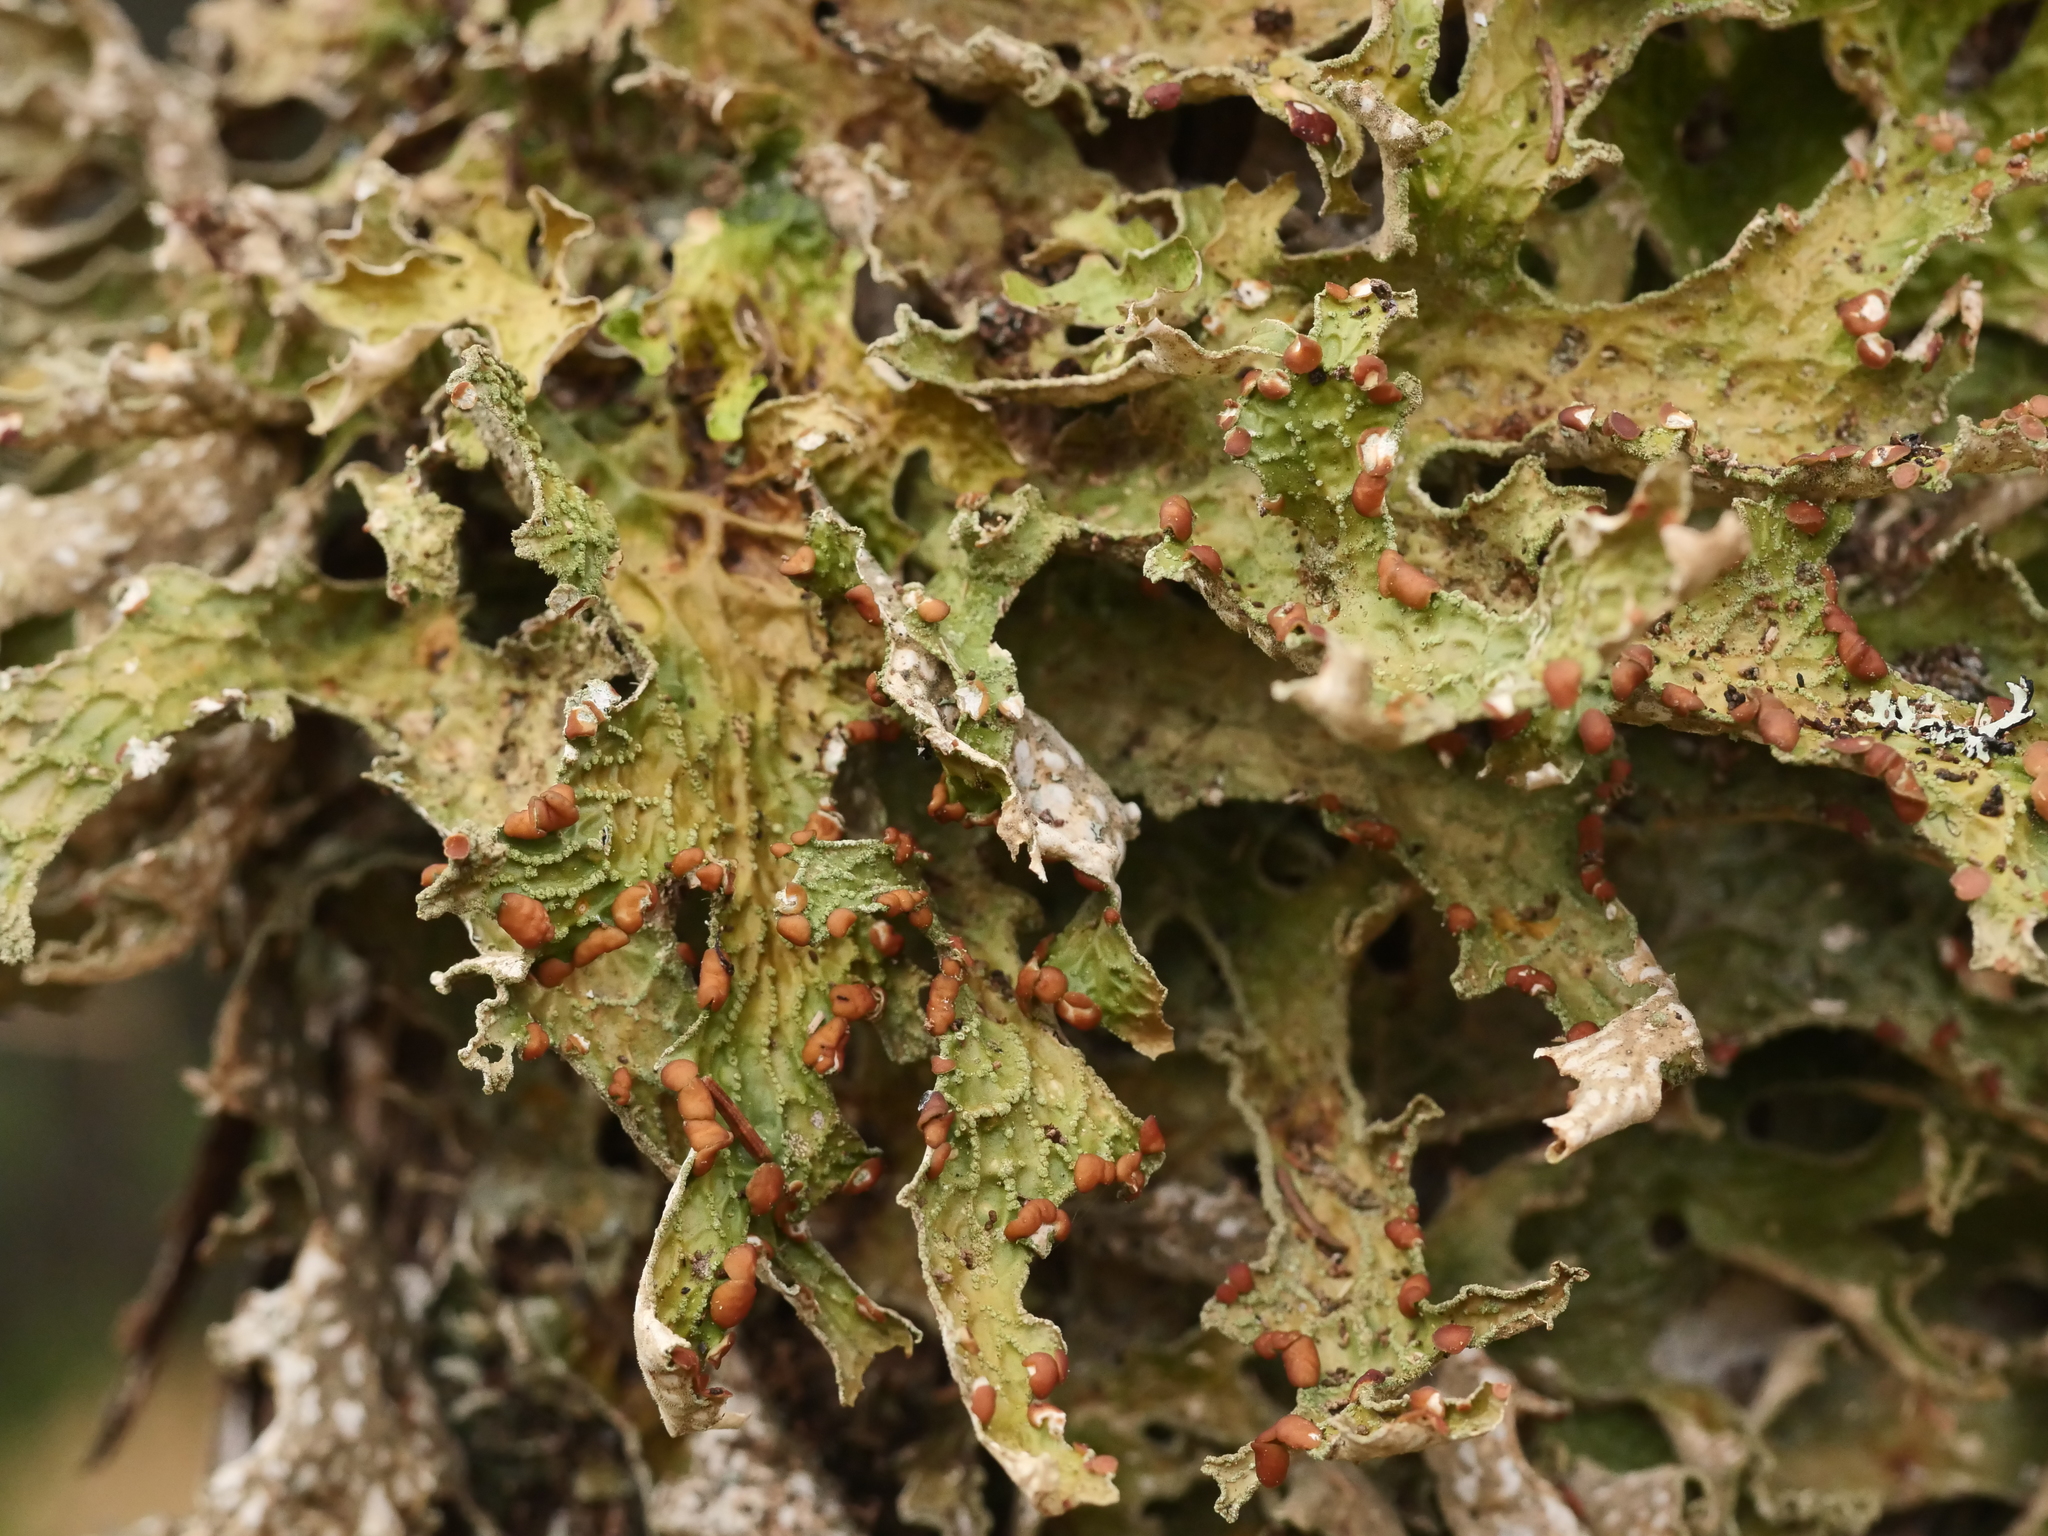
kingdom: Fungi
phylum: Ascomycota
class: Lecanoromycetes
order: Peltigerales
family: Lobariaceae
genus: Lobaria
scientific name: Lobaria pulmonaria
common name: Lungwort
